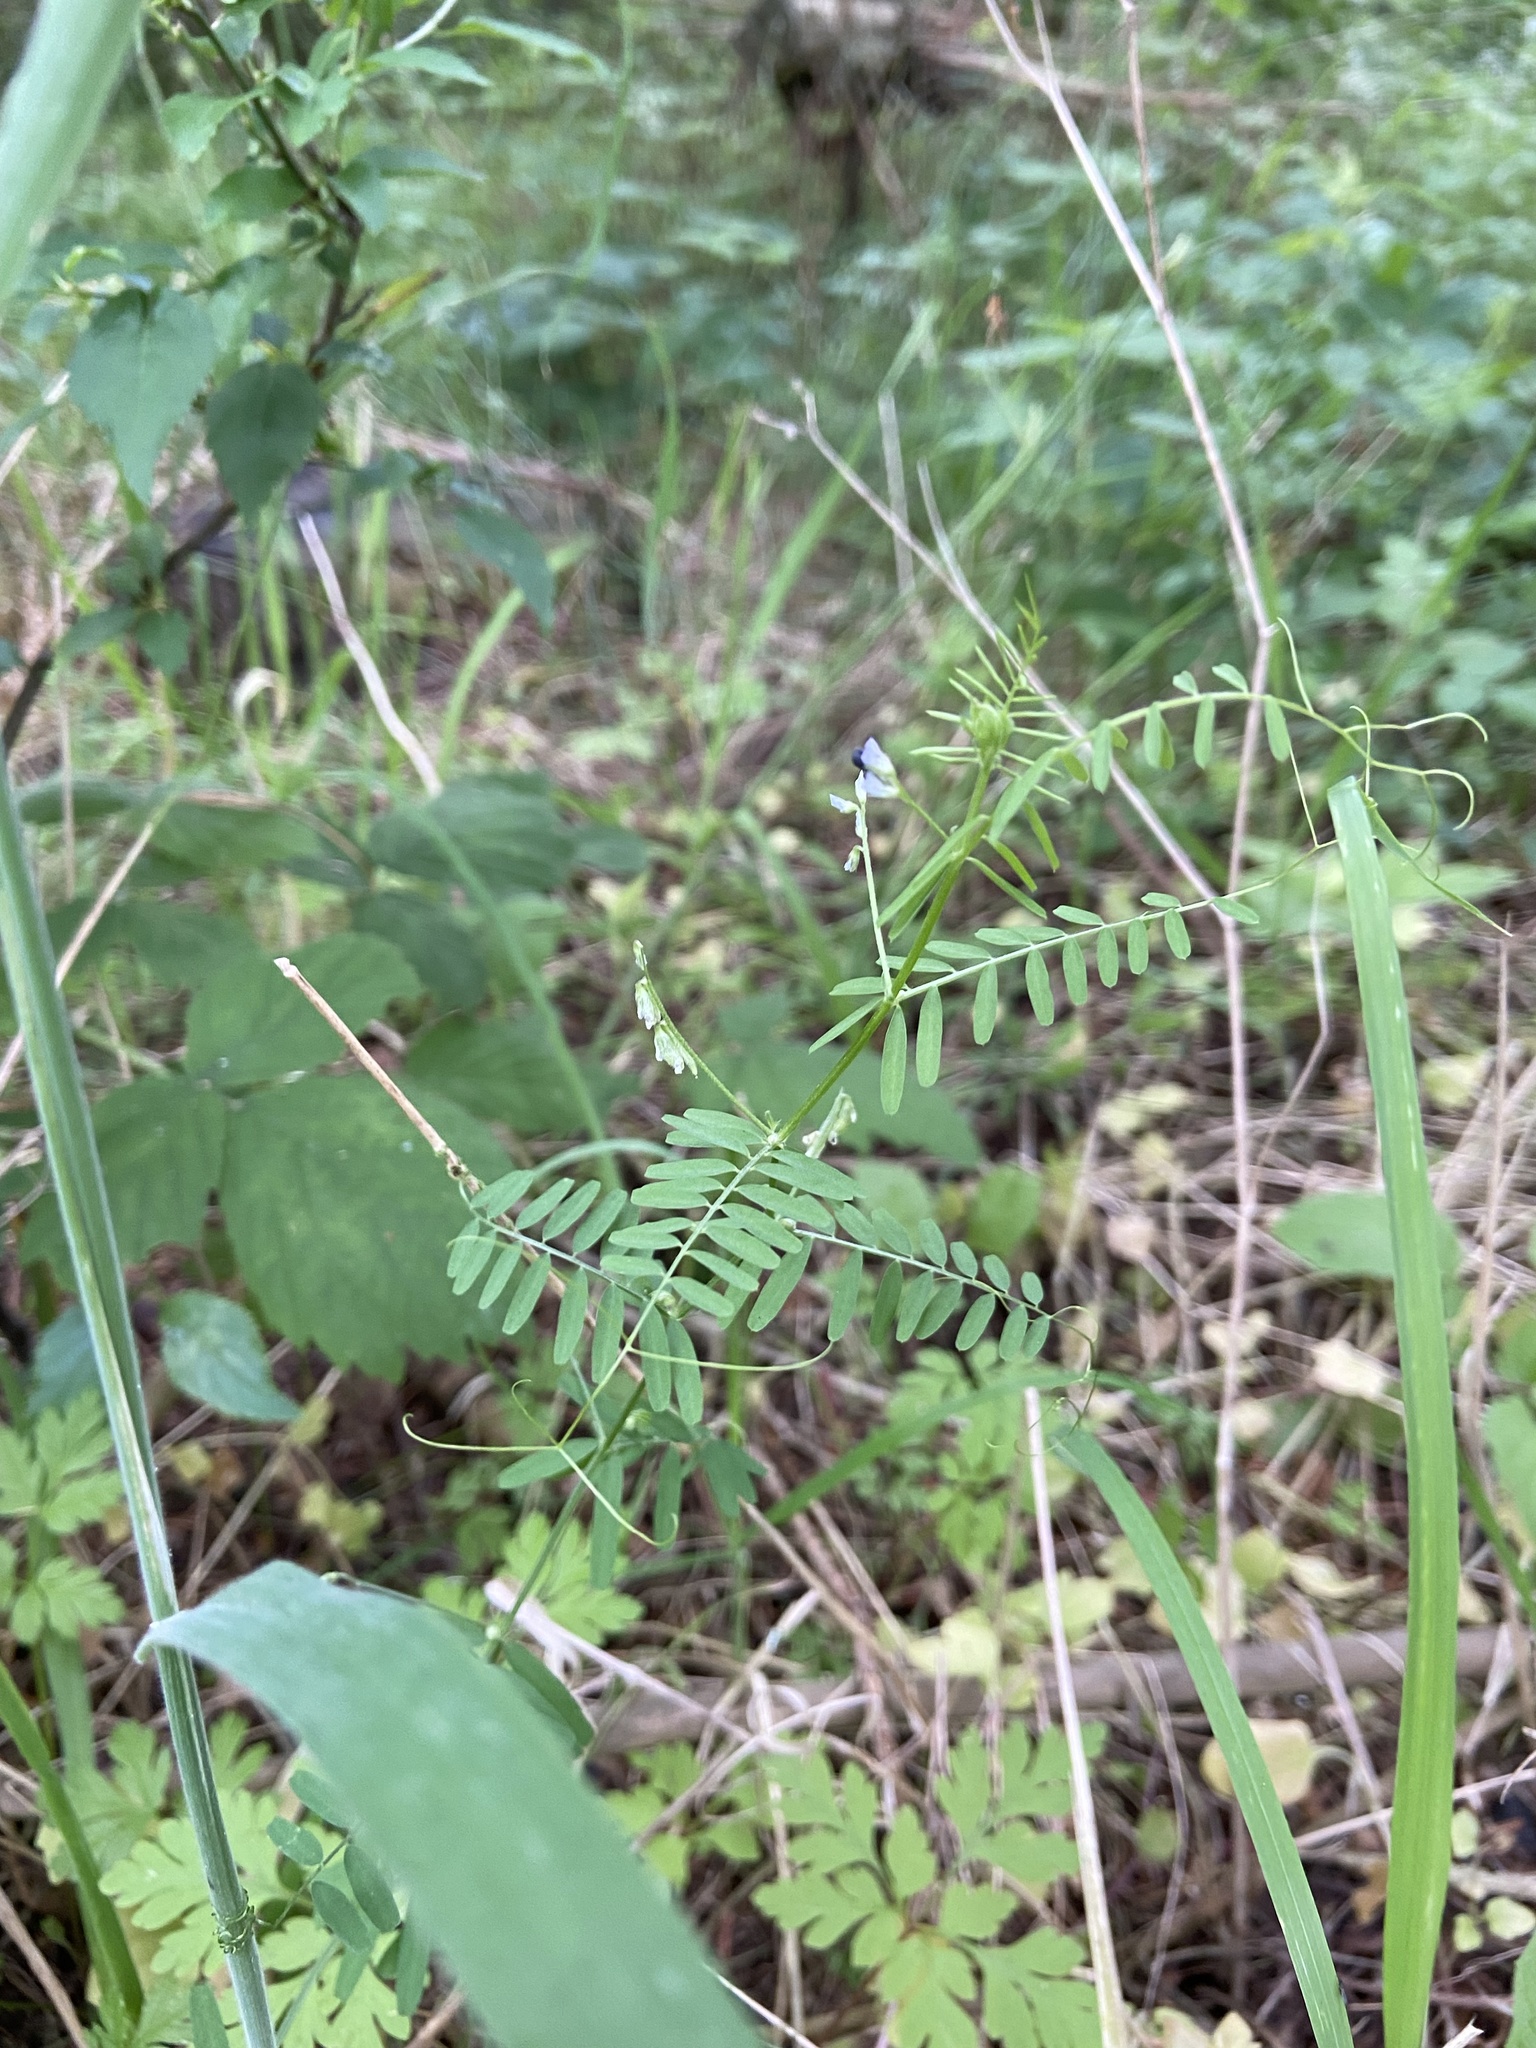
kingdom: Plantae
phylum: Tracheophyta
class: Magnoliopsida
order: Fabales
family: Fabaceae
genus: Vicia
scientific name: Vicia hirsuta
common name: Tiny vetch
